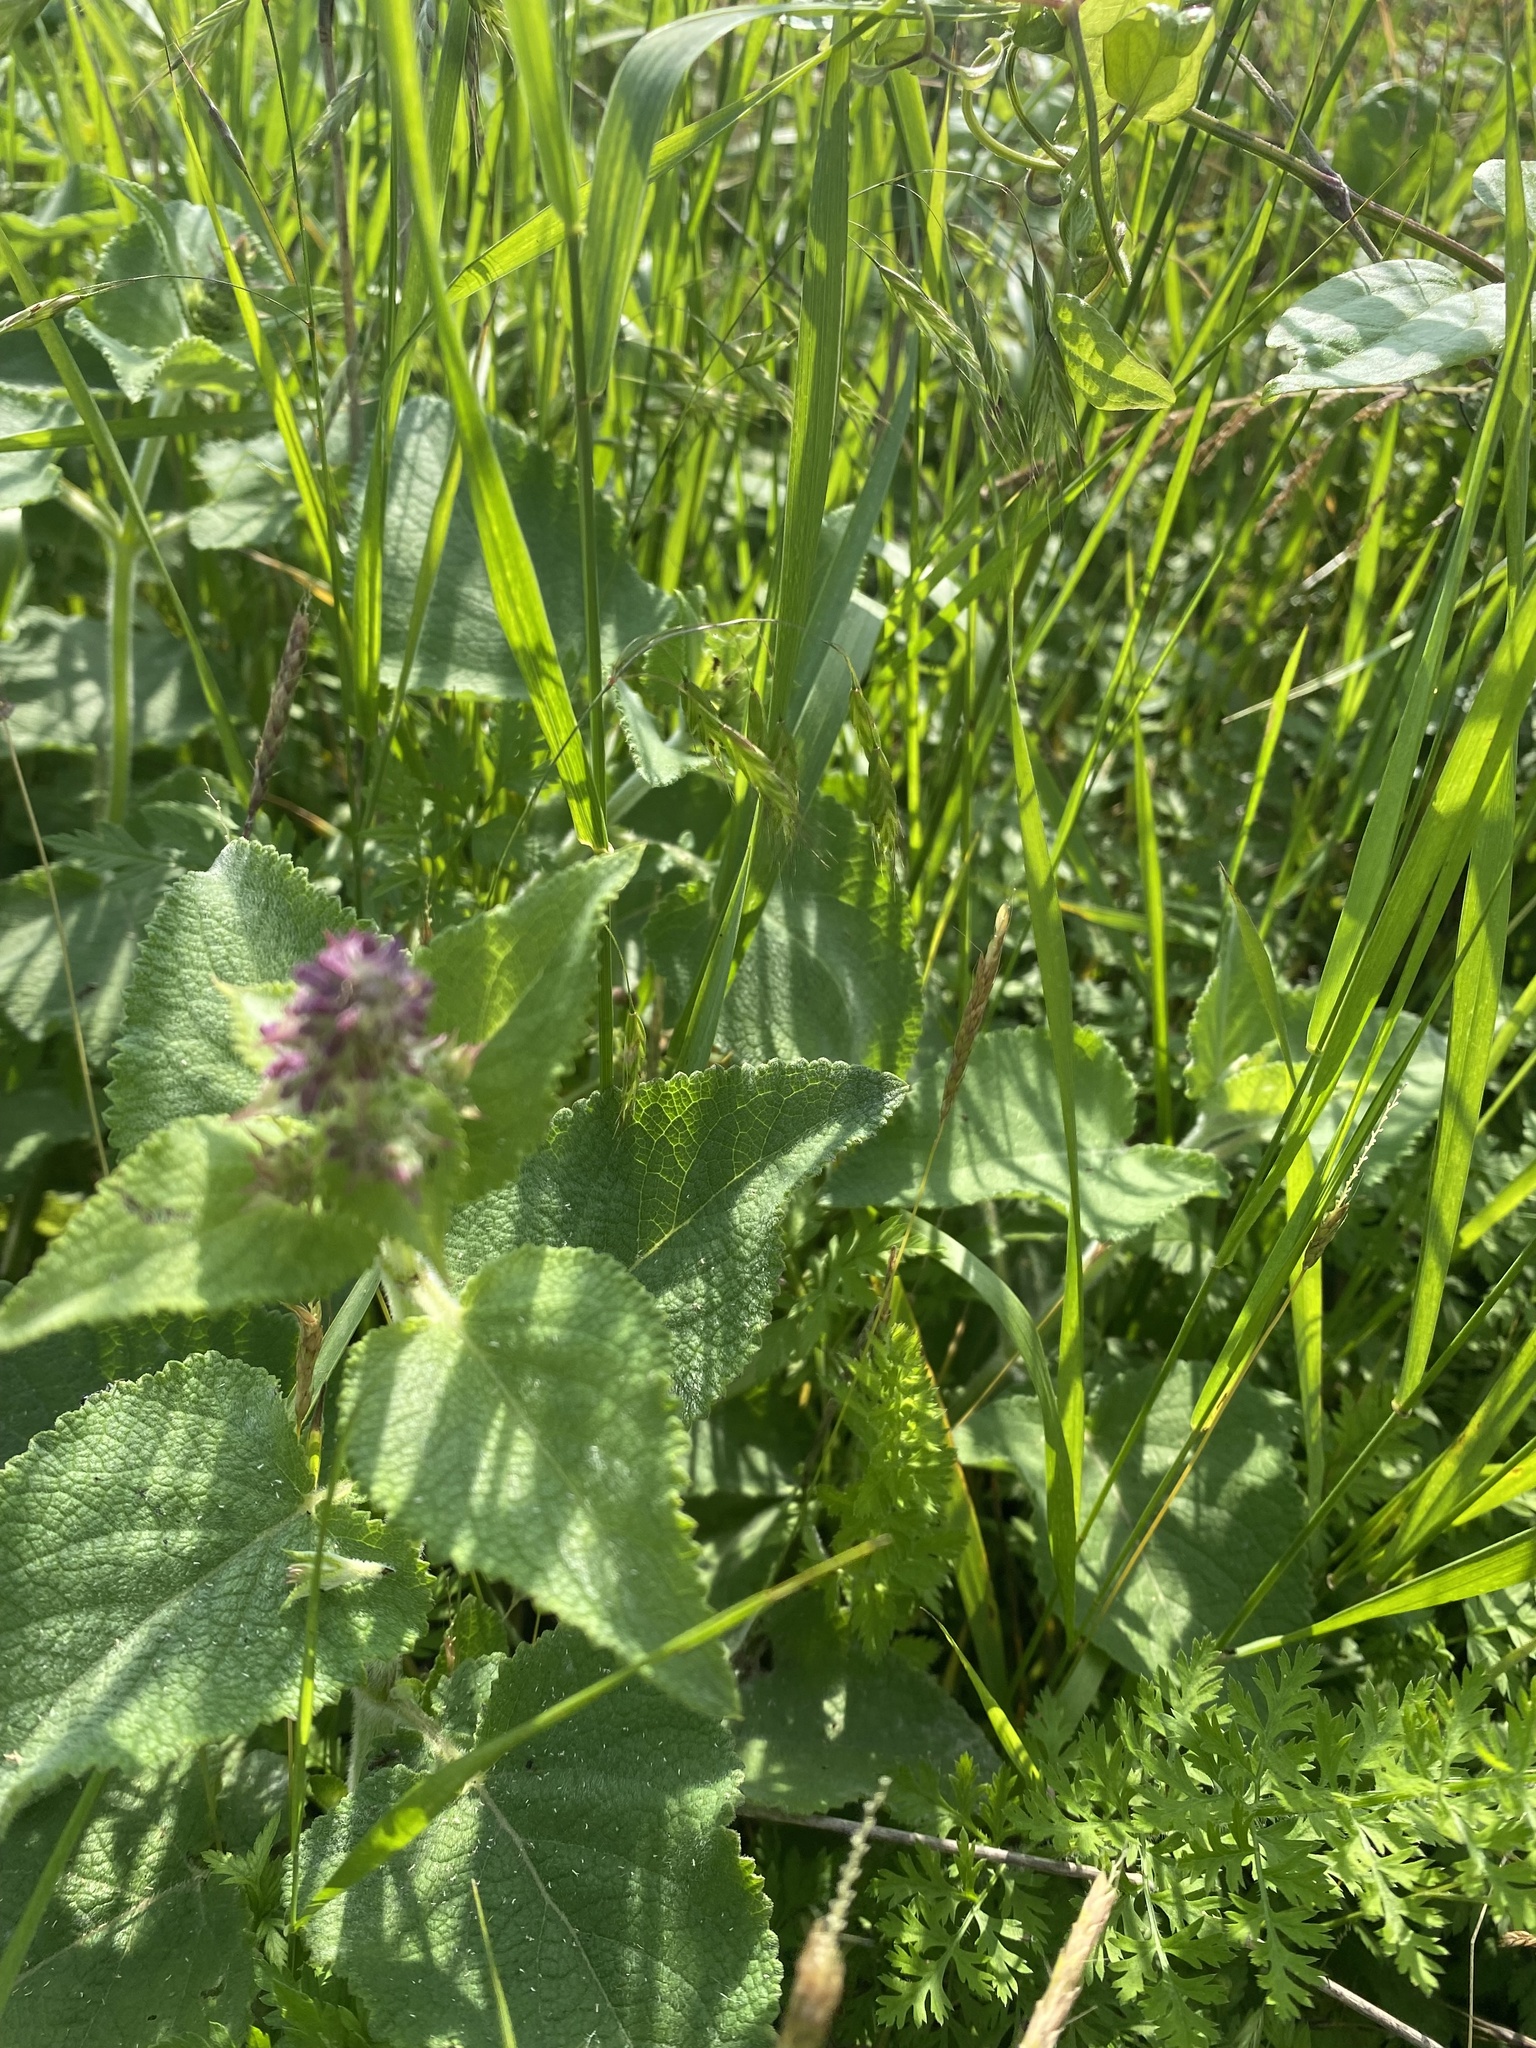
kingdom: Plantae
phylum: Tracheophyta
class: Magnoliopsida
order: Lamiales
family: Lamiaceae
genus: Salvia
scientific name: Salvia verticillata
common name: Whorled clary
